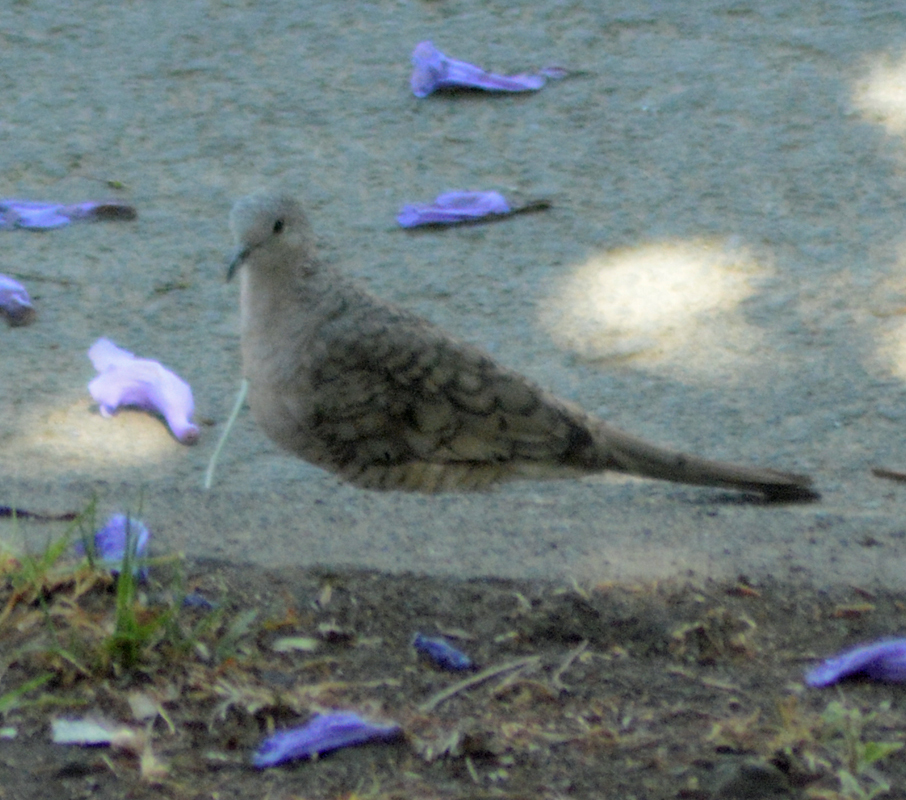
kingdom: Animalia
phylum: Chordata
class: Aves
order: Columbiformes
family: Columbidae
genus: Columbina
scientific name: Columbina inca
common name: Inca dove
